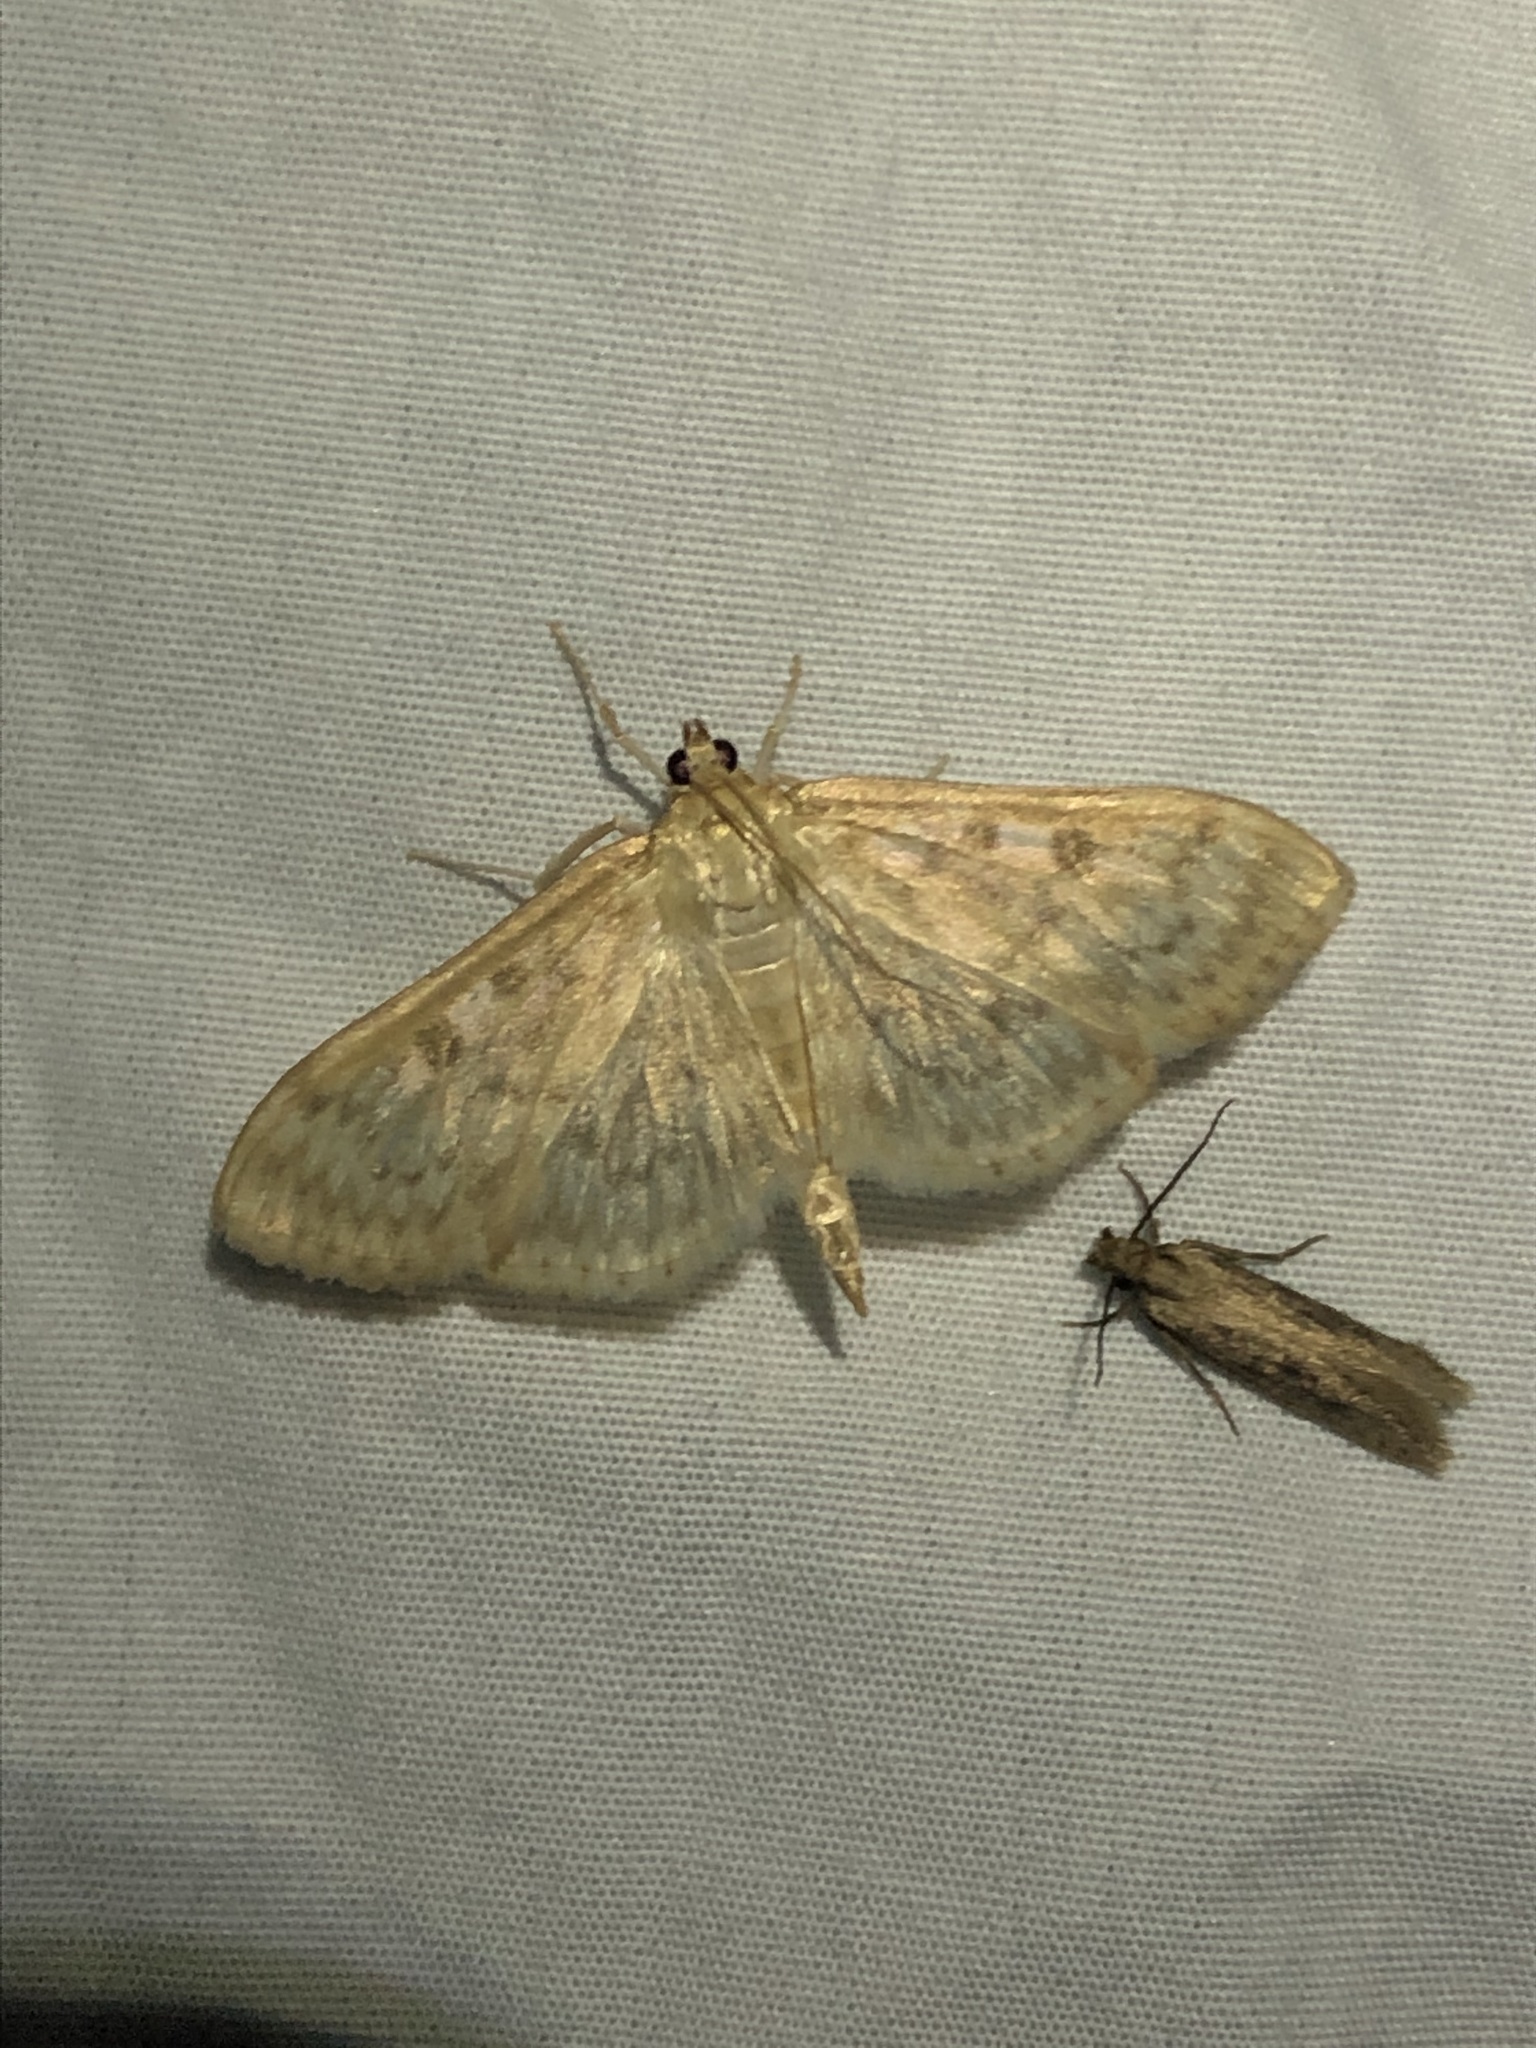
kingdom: Animalia
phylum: Arthropoda
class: Insecta
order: Lepidoptera
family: Crambidae
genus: Herpetogramma
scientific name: Herpetogramma aquilonalis
